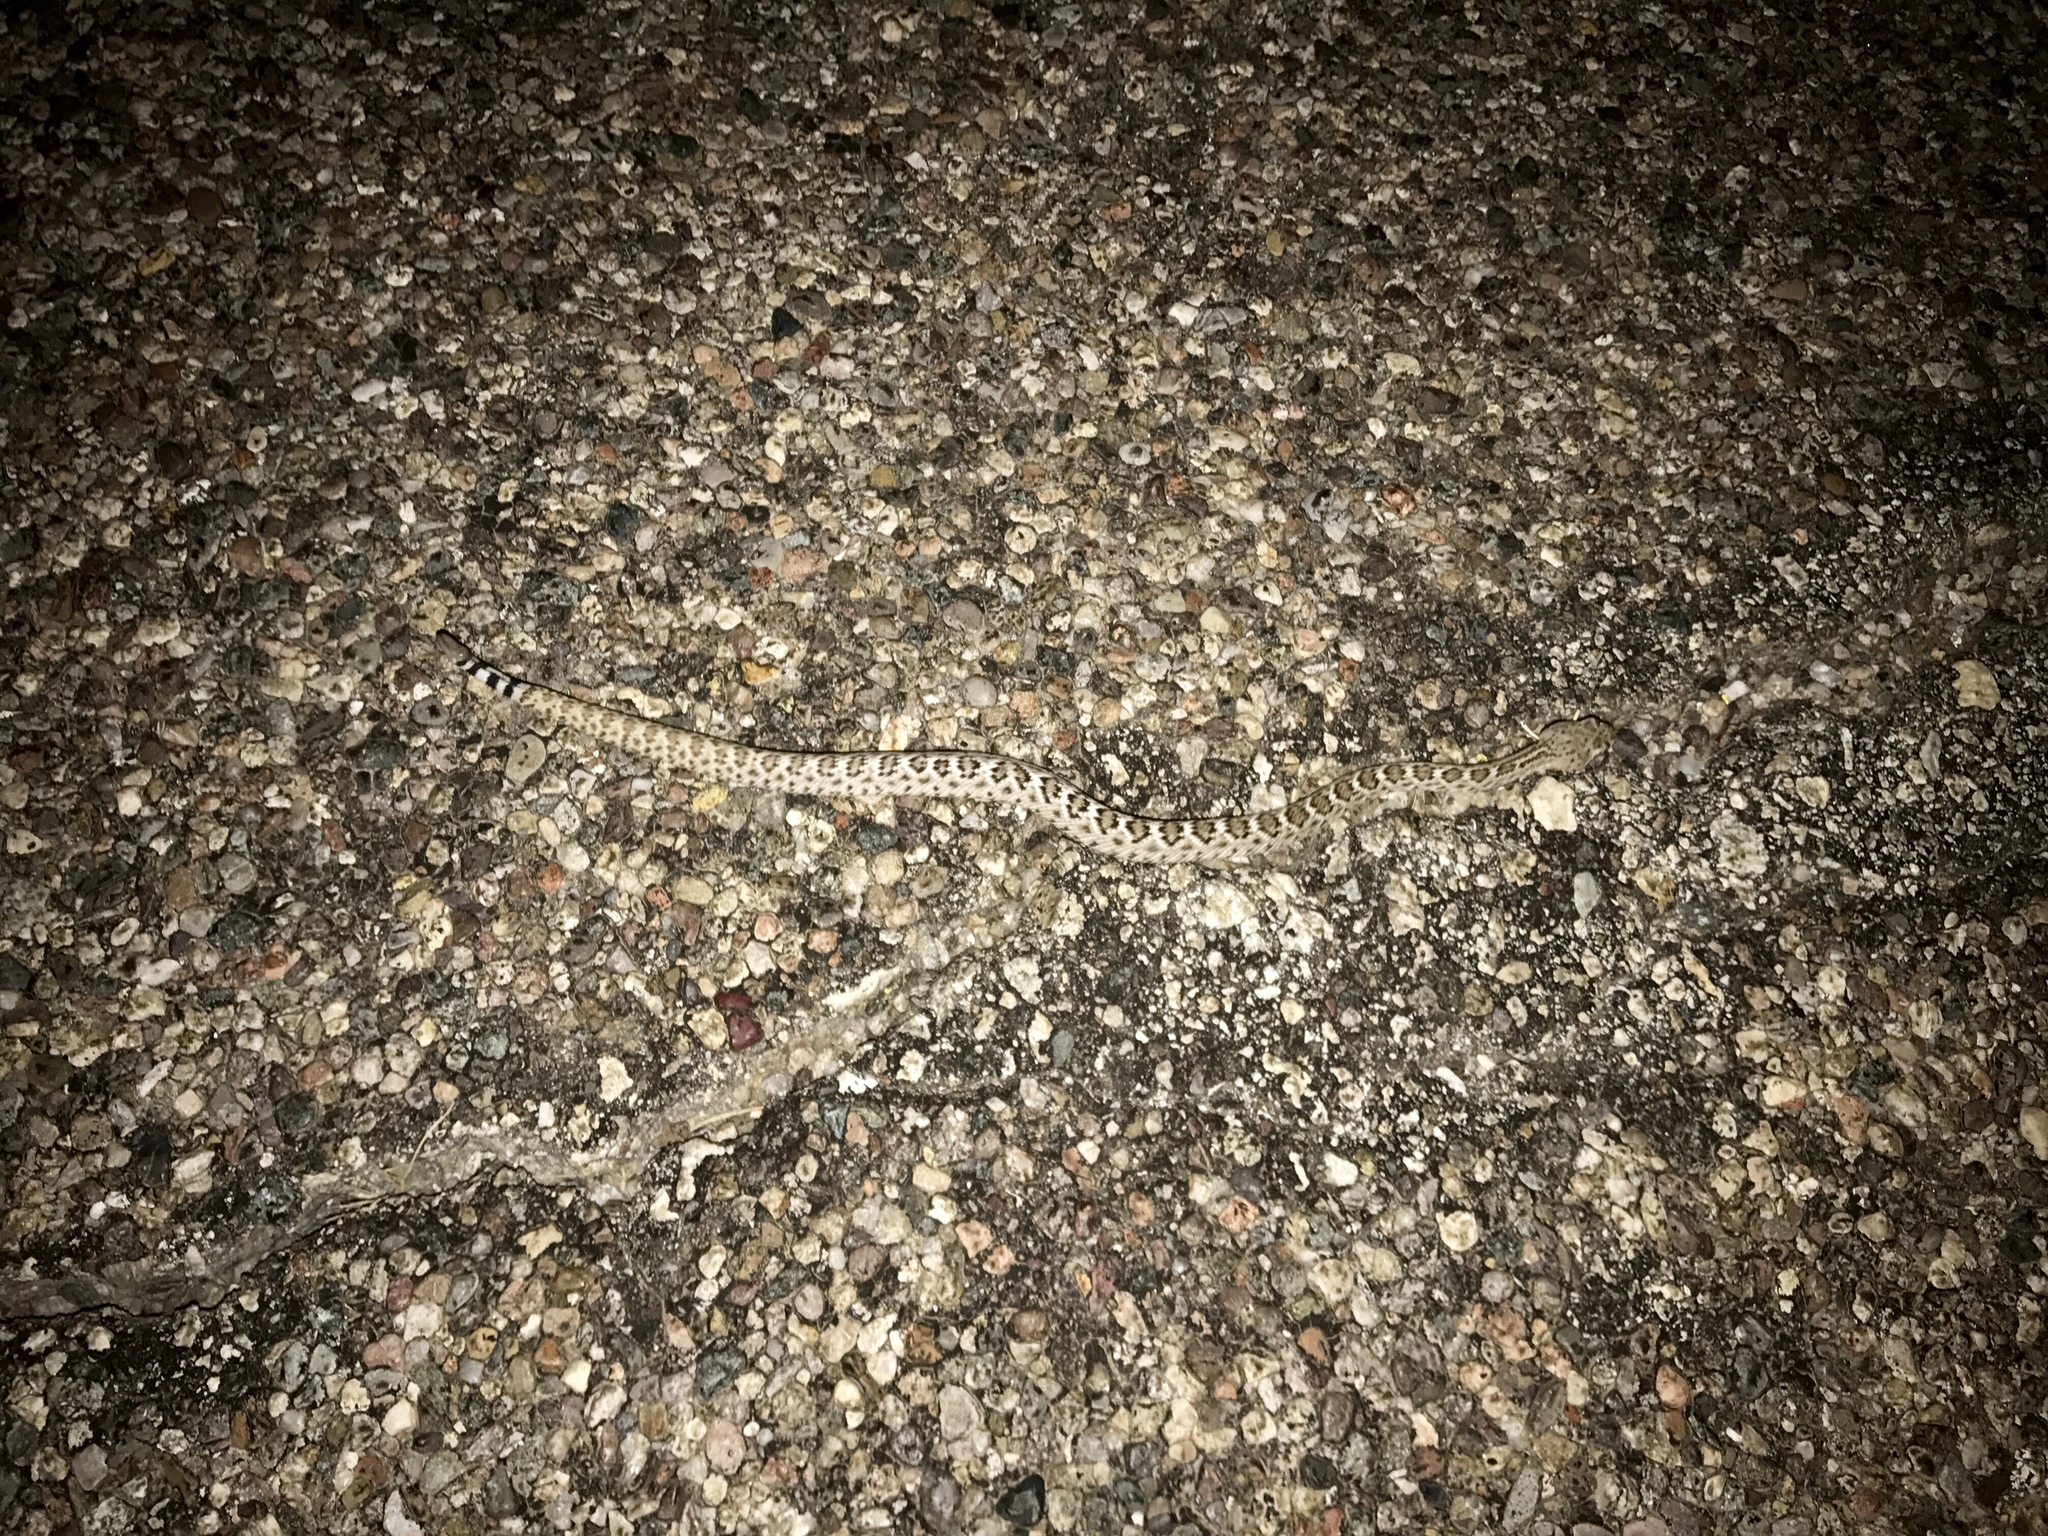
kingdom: Animalia
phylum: Chordata
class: Squamata
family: Viperidae
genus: Crotalus
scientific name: Crotalus atrox
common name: Western diamond-backed rattlesnake
